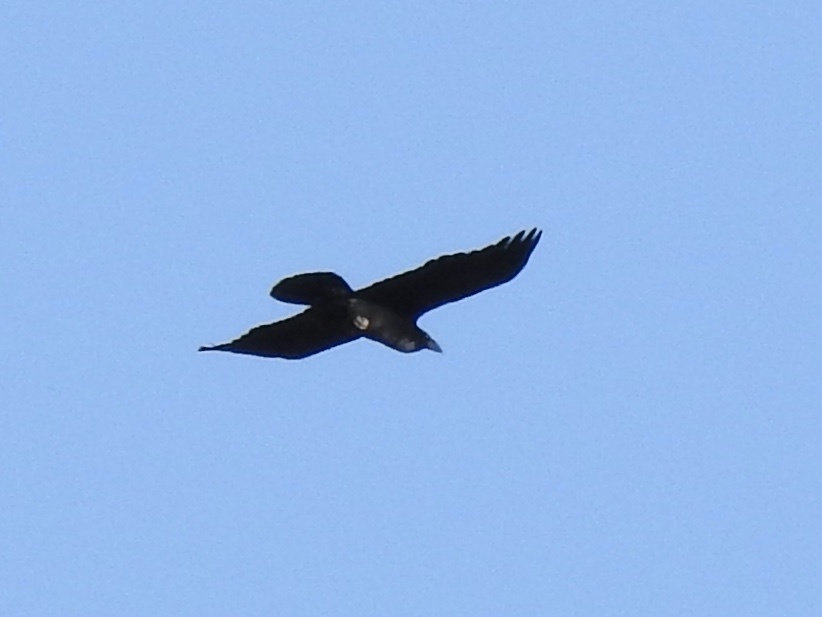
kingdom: Animalia
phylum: Chordata
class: Aves
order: Passeriformes
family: Corvidae
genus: Corvus
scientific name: Corvus corax
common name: Common raven
